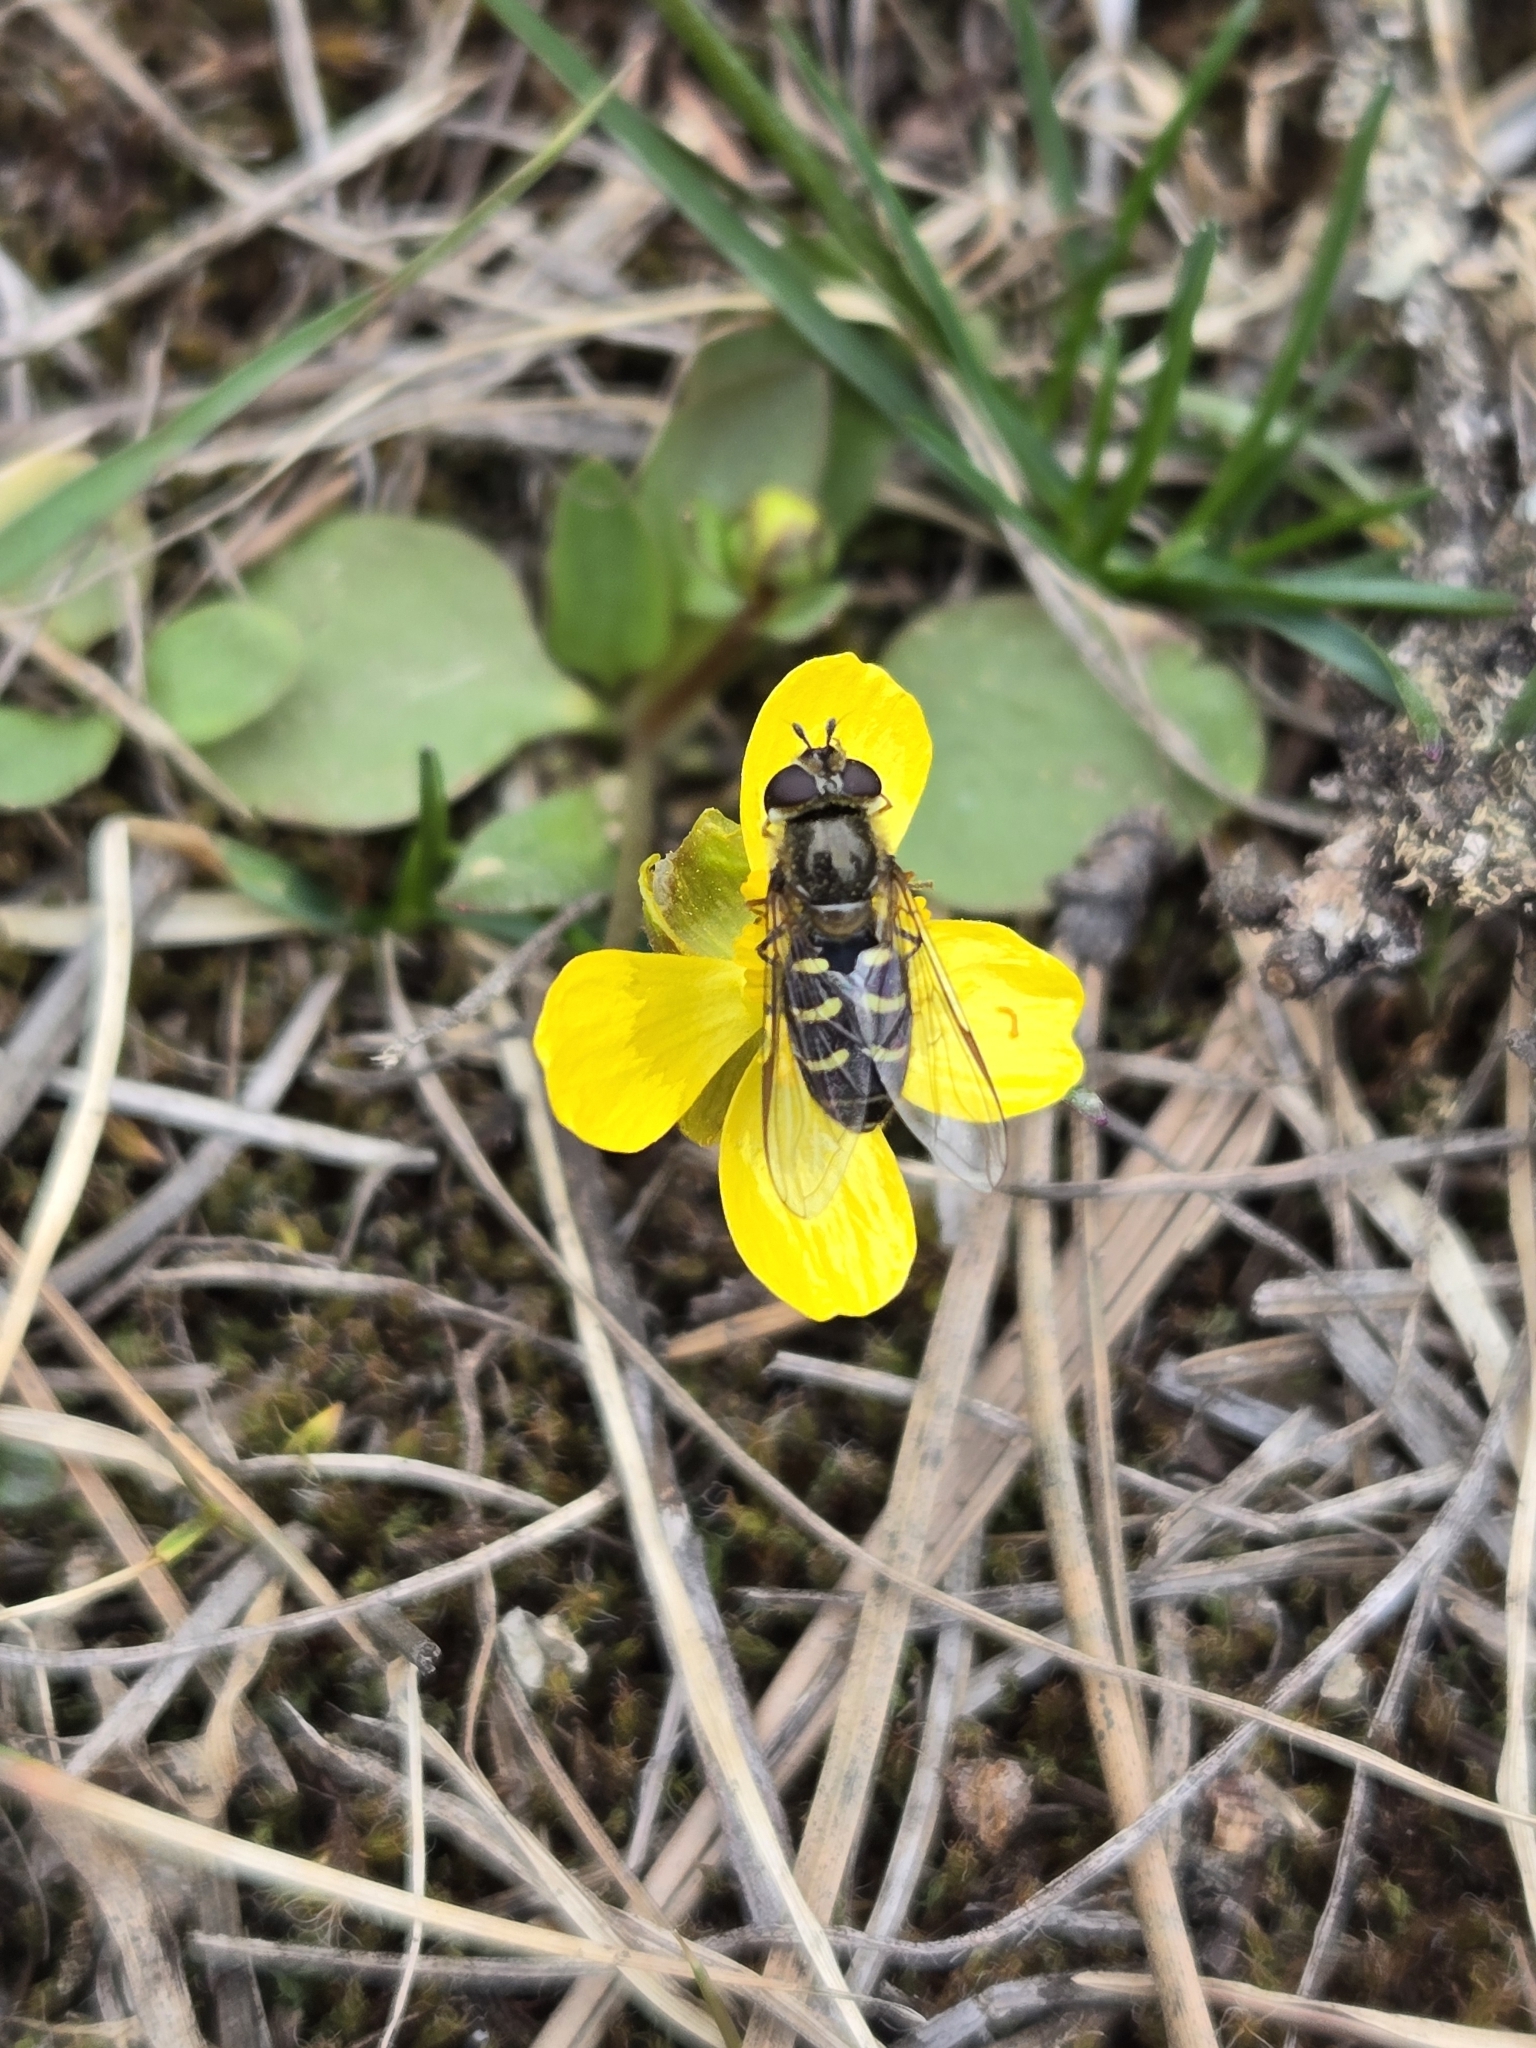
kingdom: Animalia
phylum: Arthropoda
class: Insecta
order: Diptera
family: Syrphidae
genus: Lapposyrphus
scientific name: Lapposyrphus lapponicus
